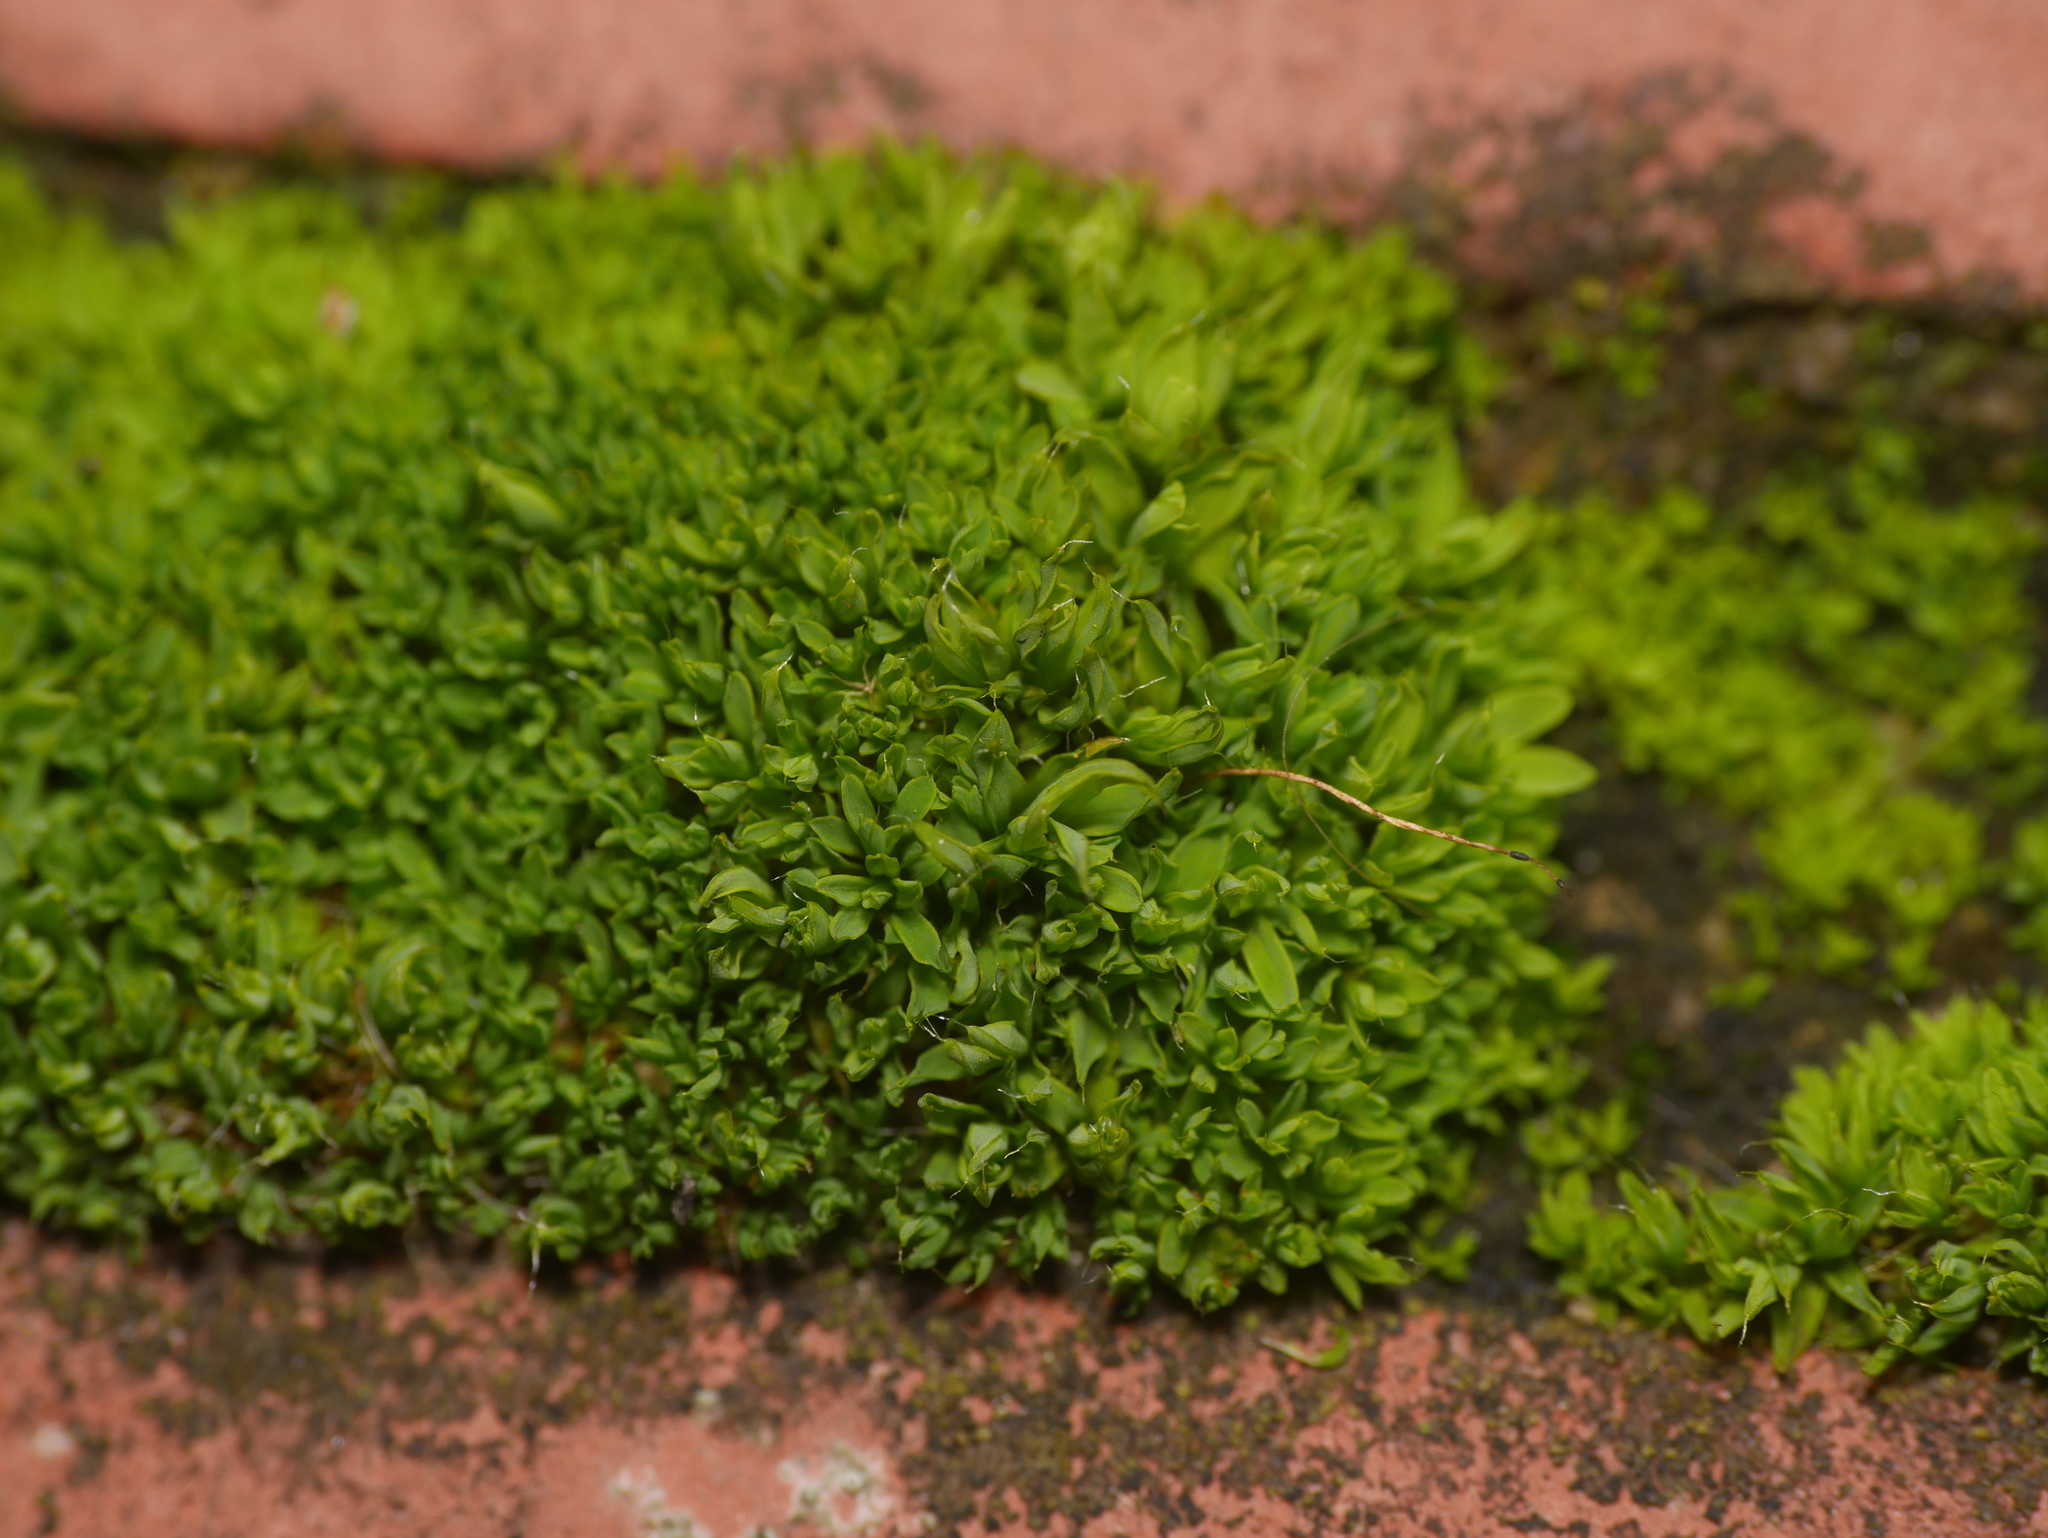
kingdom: Plantae
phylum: Bryophyta
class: Bryopsida
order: Pottiales
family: Pottiaceae
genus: Tortula
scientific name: Tortula muralis
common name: Wall screw-moss
